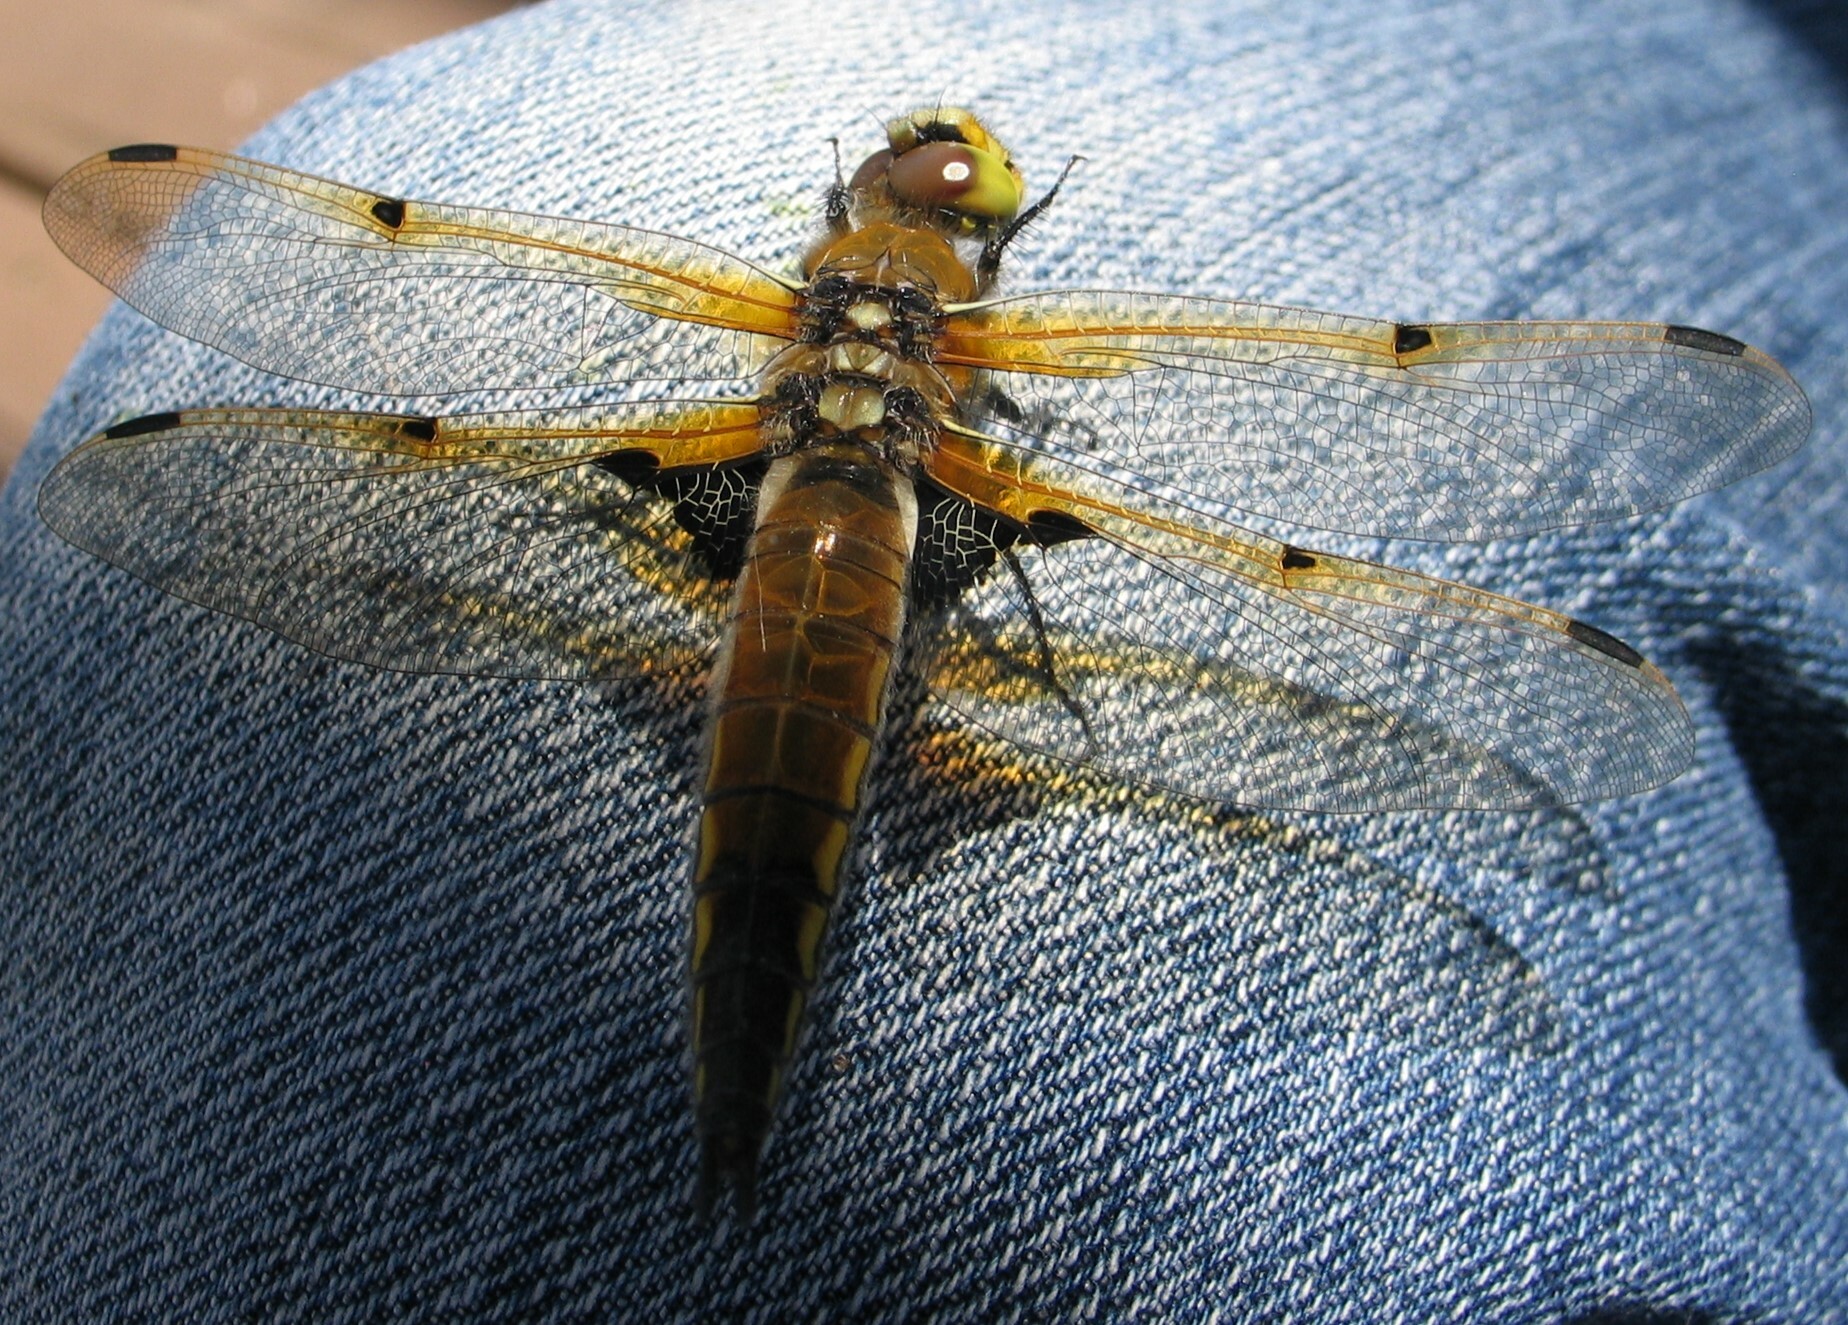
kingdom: Animalia
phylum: Arthropoda
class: Insecta
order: Odonata
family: Libellulidae
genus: Libellula
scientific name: Libellula quadrimaculata
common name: Four-spotted chaser
